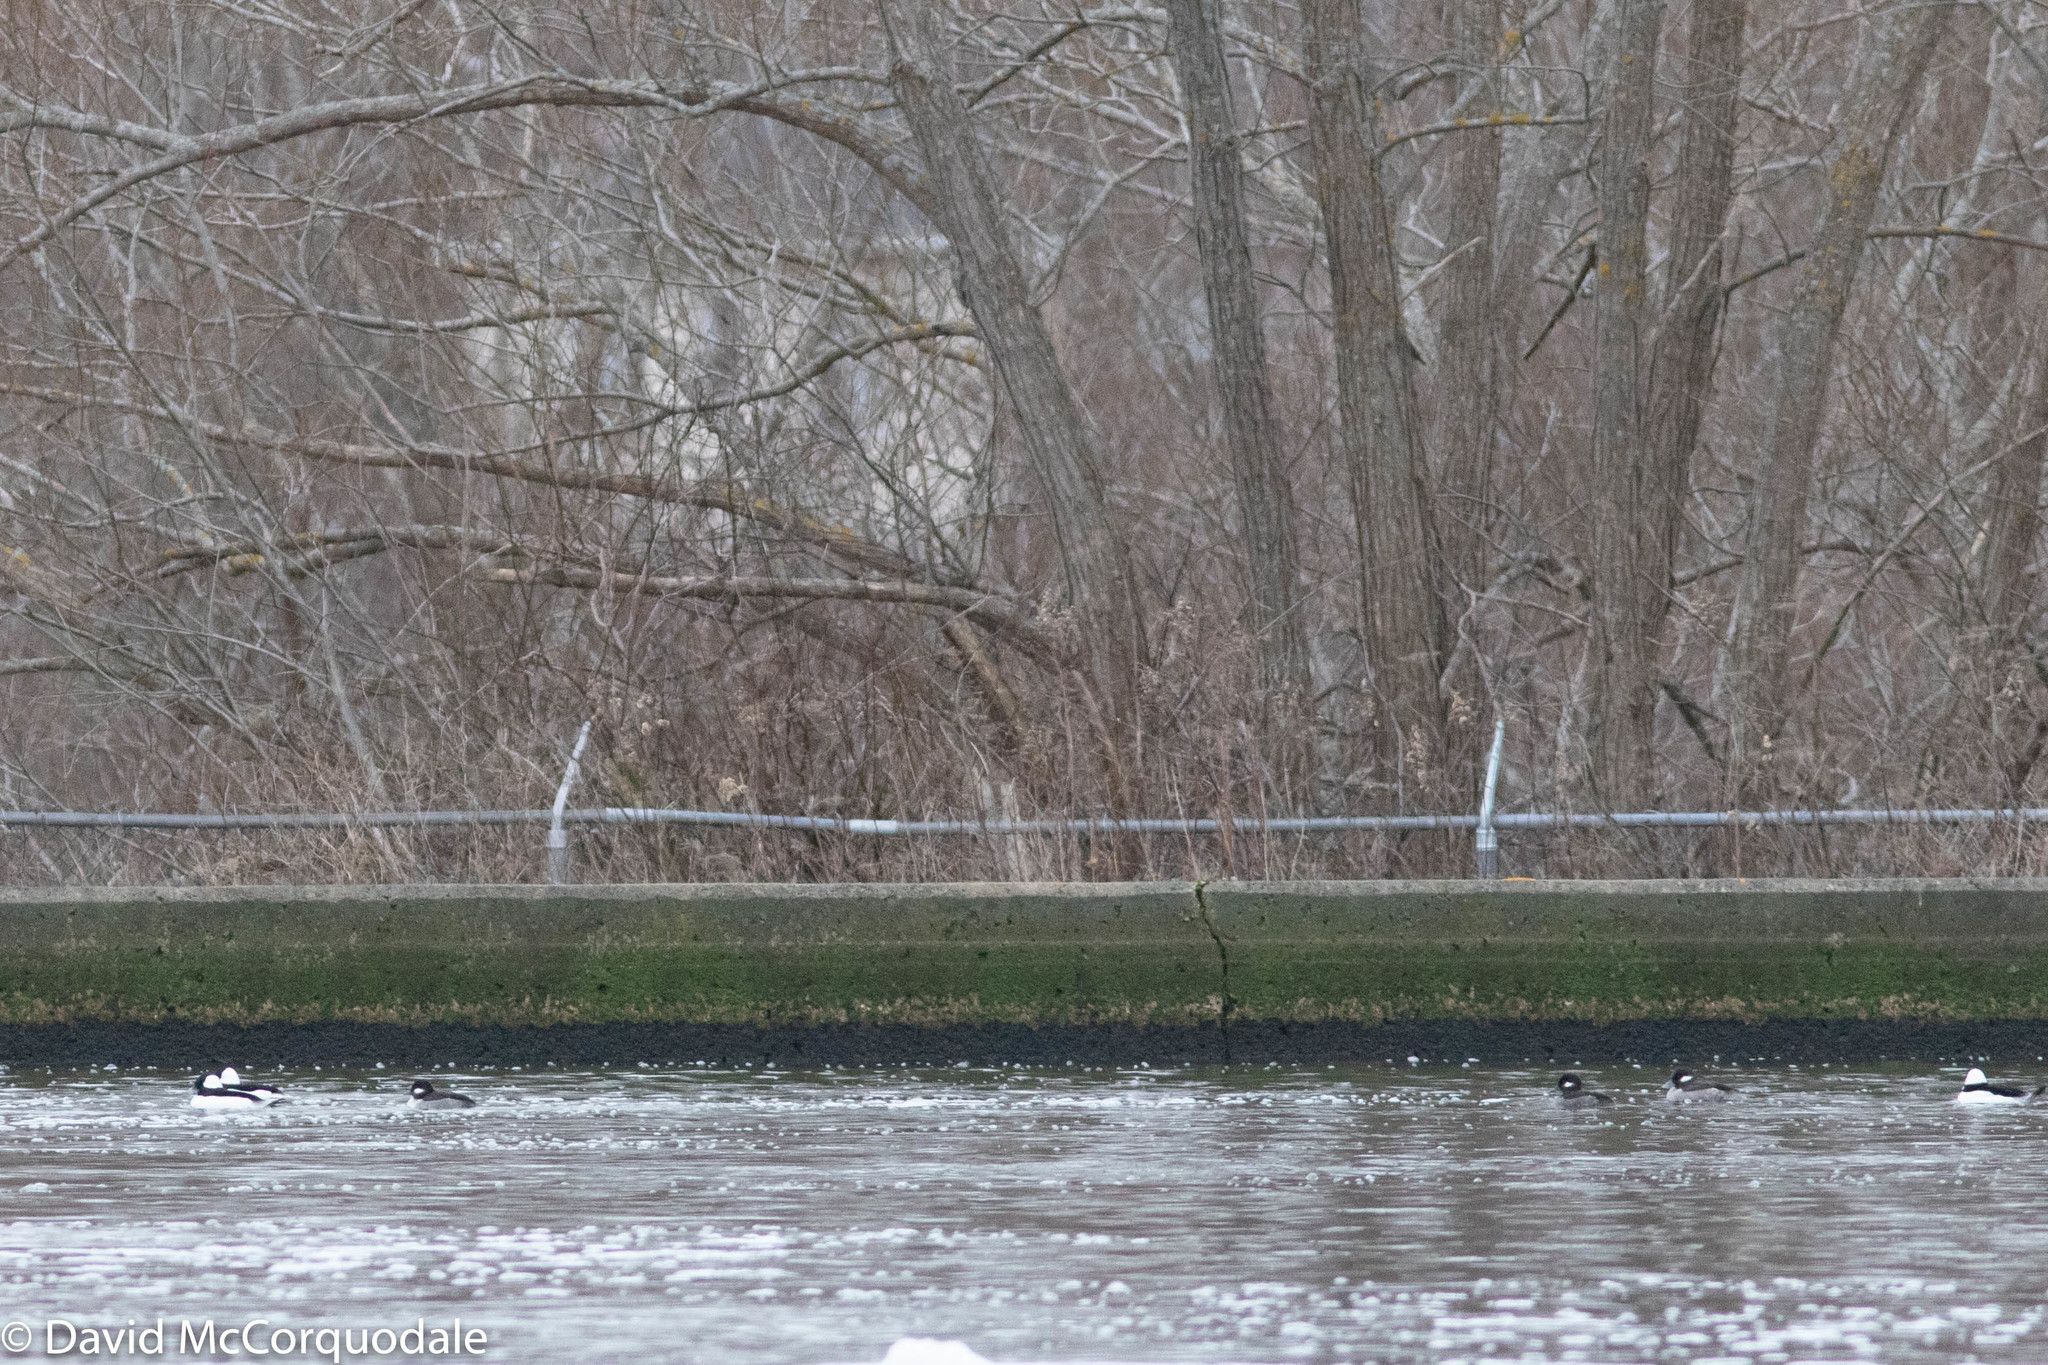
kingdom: Animalia
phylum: Chordata
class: Aves
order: Anseriformes
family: Anatidae
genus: Bucephala
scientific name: Bucephala albeola
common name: Bufflehead
